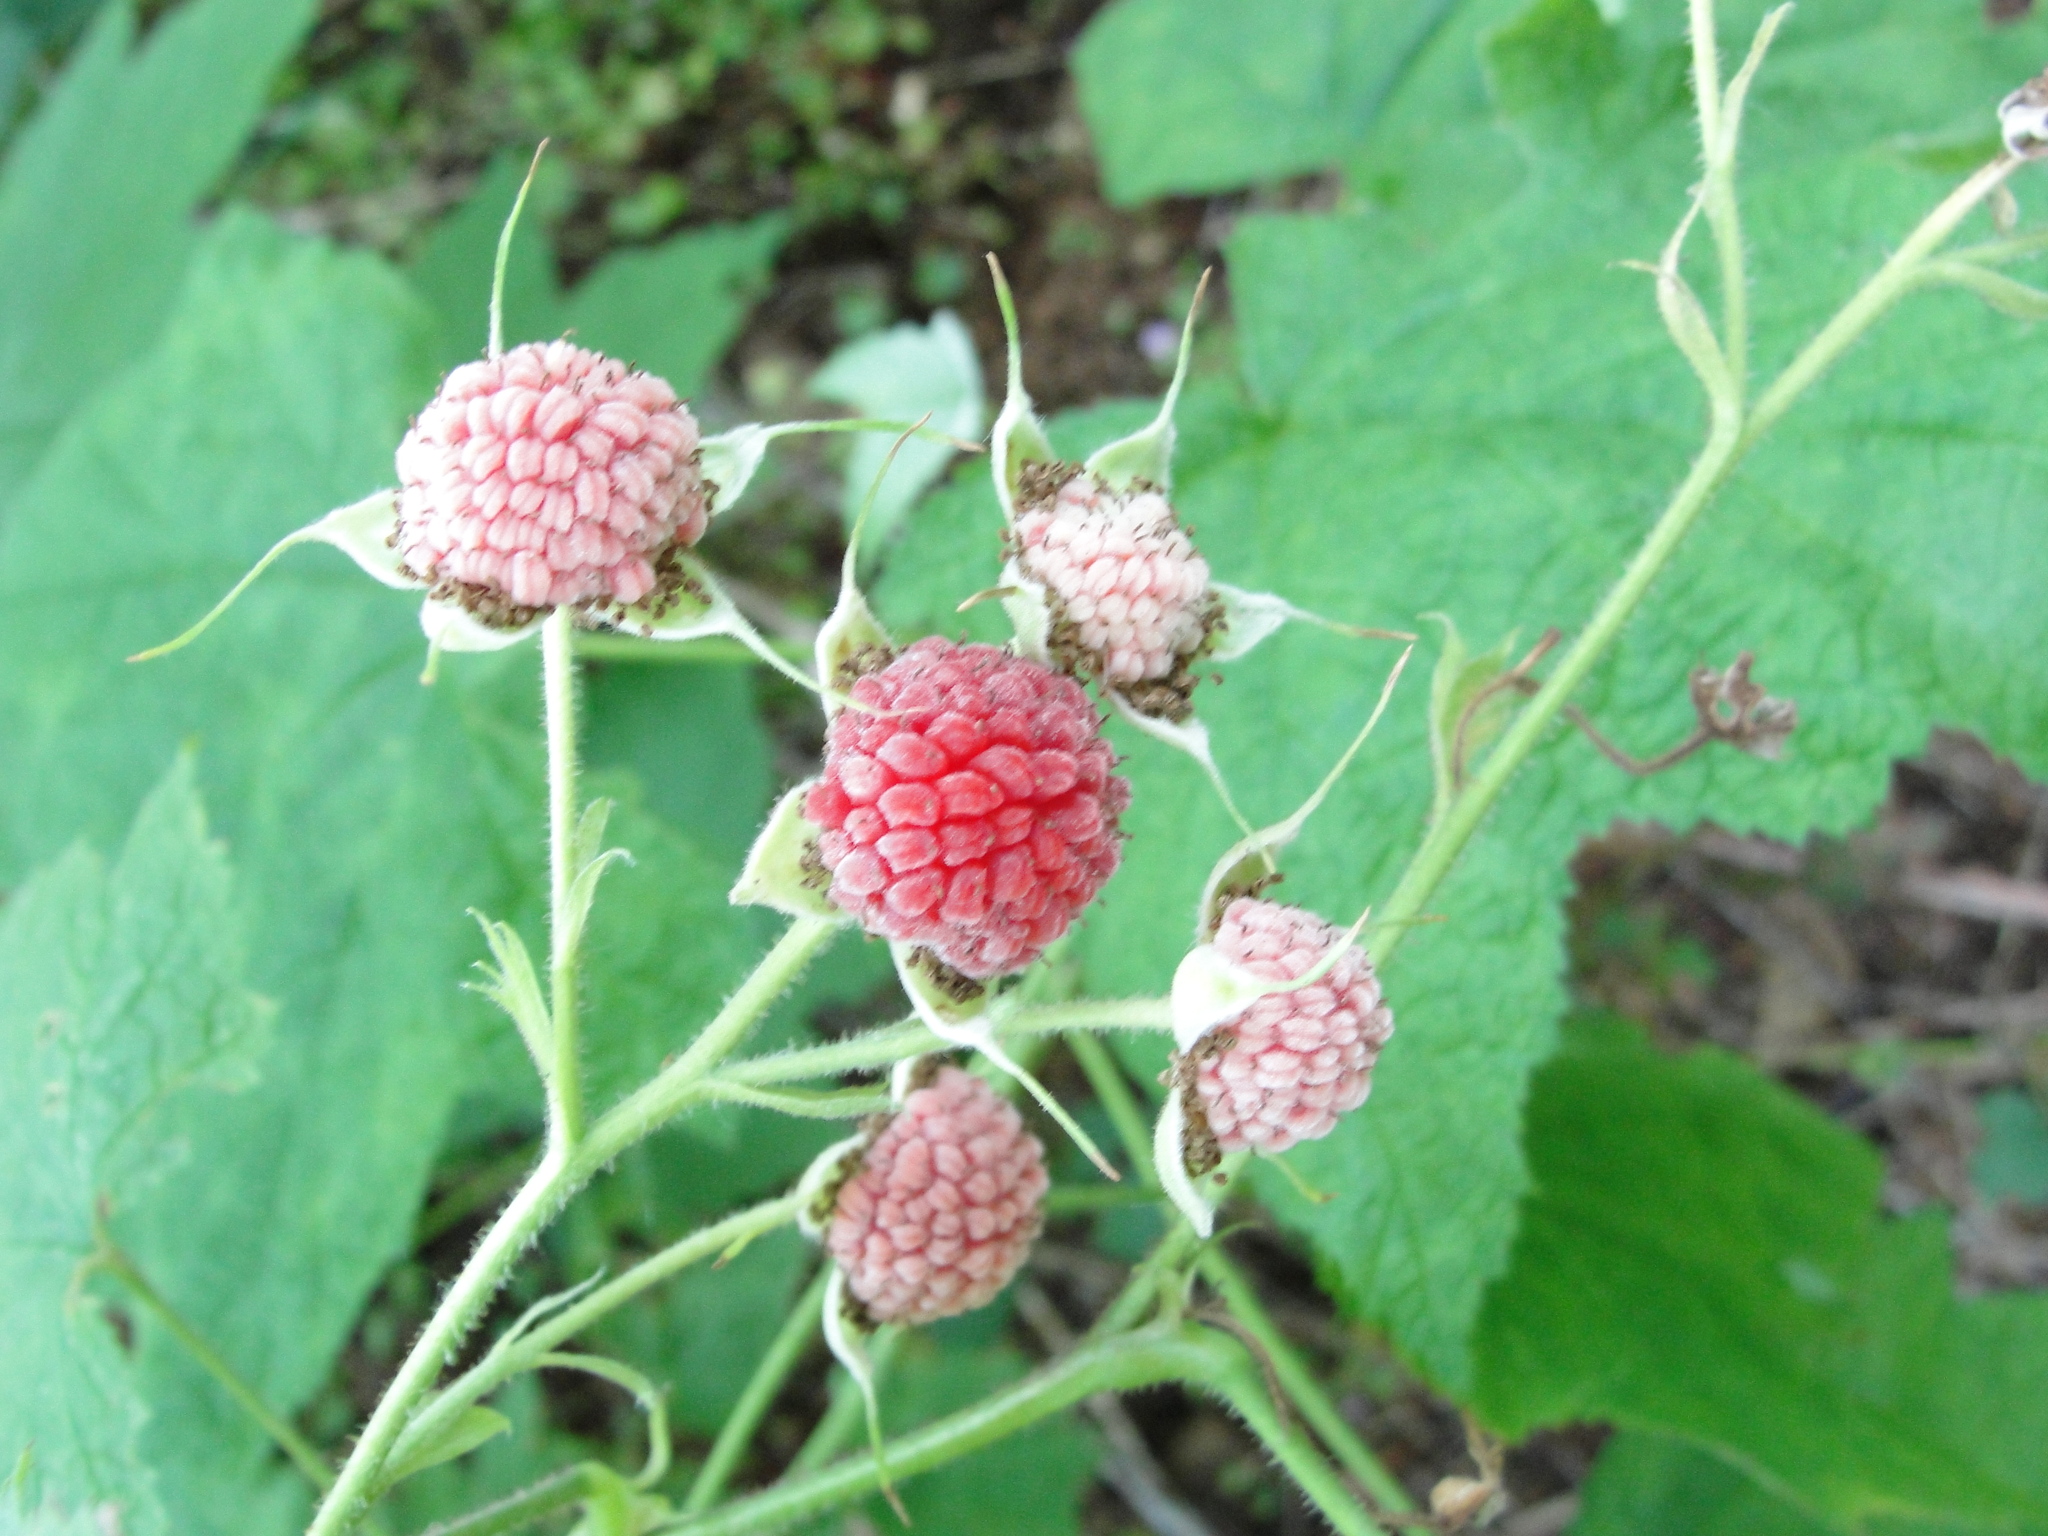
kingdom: Plantae
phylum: Tracheophyta
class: Magnoliopsida
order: Rosales
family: Rosaceae
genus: Rubus
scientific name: Rubus parviflorus
